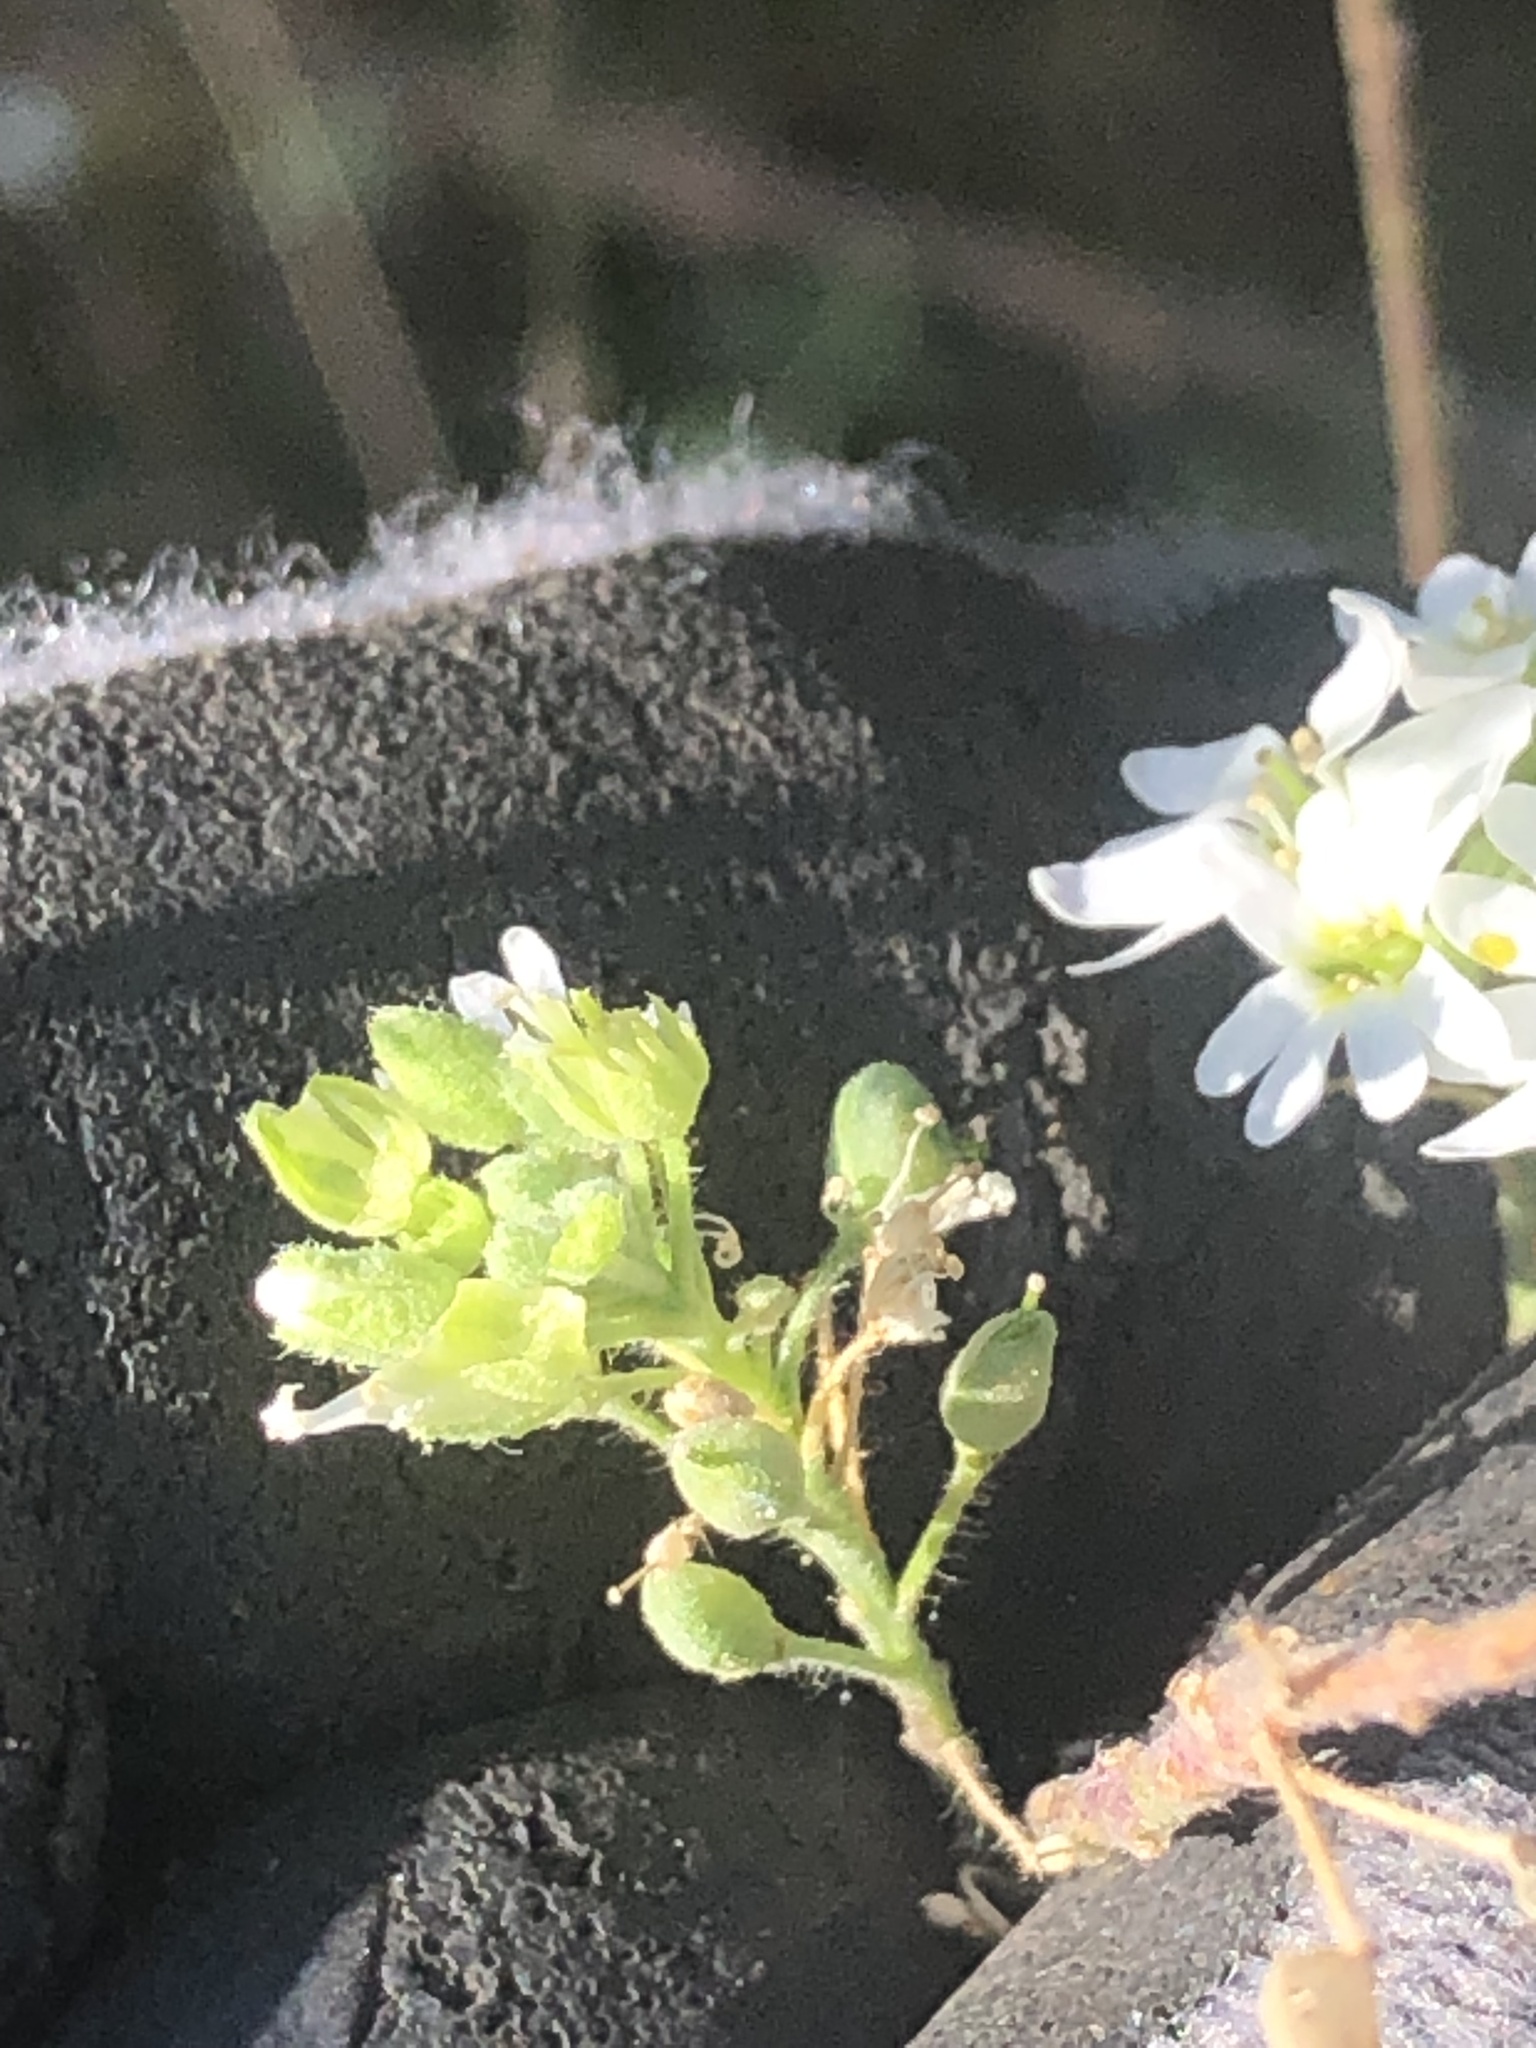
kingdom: Plantae
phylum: Tracheophyta
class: Magnoliopsida
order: Brassicales
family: Brassicaceae
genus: Berteroa
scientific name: Berteroa incana
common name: Hoary alison
